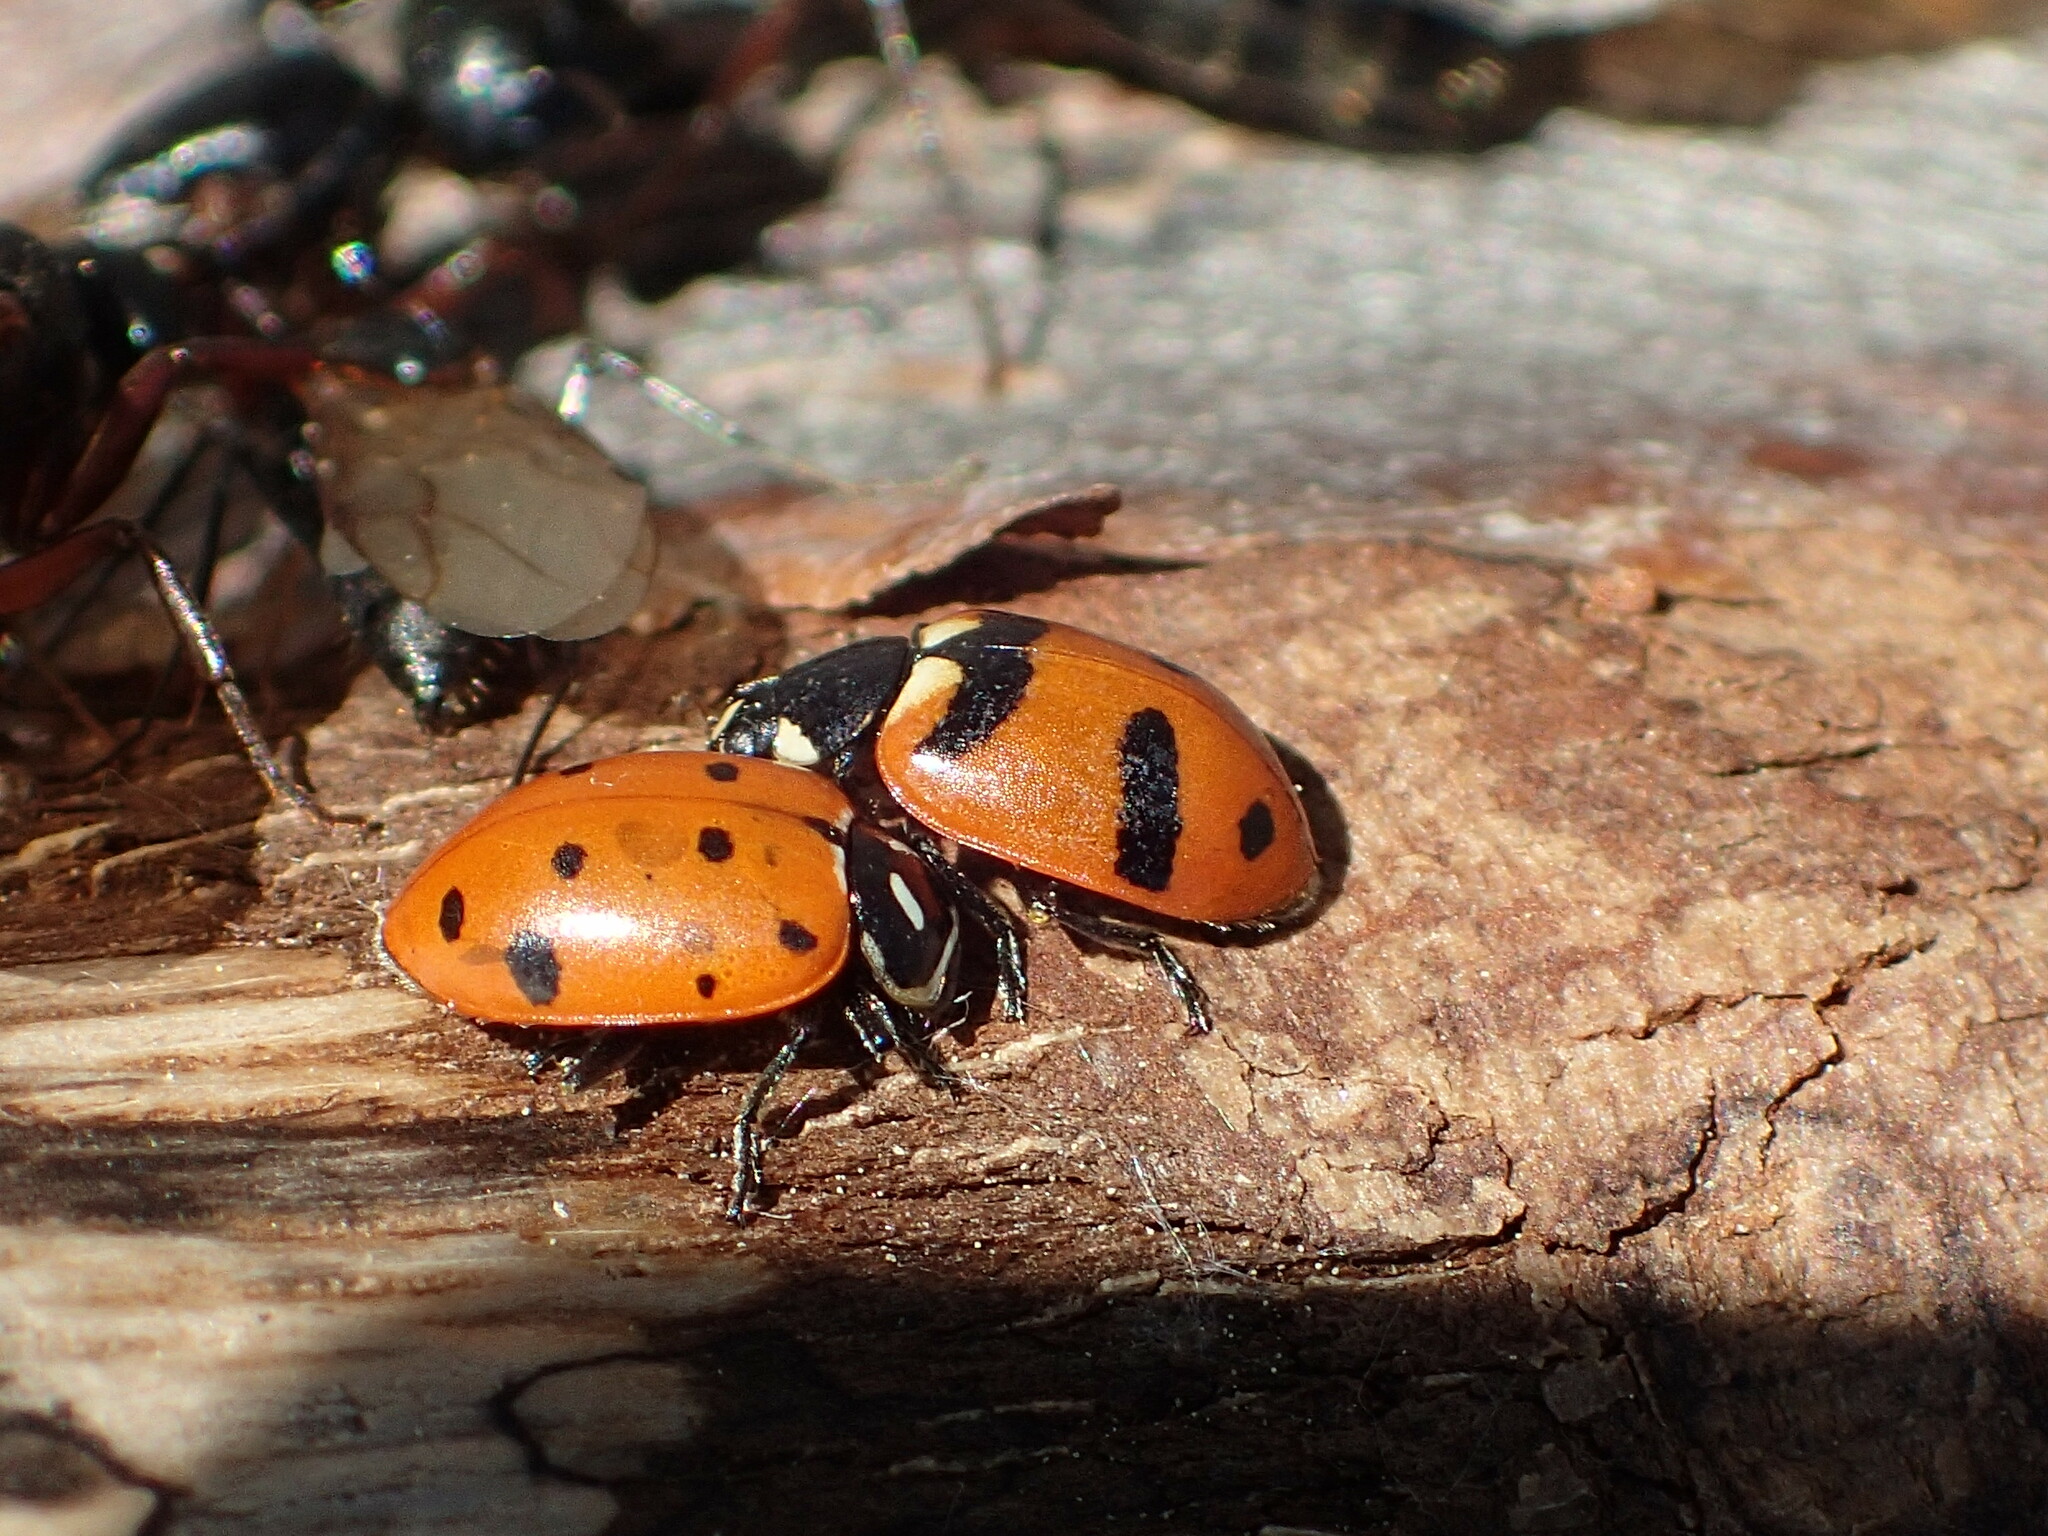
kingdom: Animalia
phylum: Arthropoda
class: Insecta
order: Coleoptera
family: Coccinellidae
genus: Hippodamia
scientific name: Hippodamia quinquesignata
